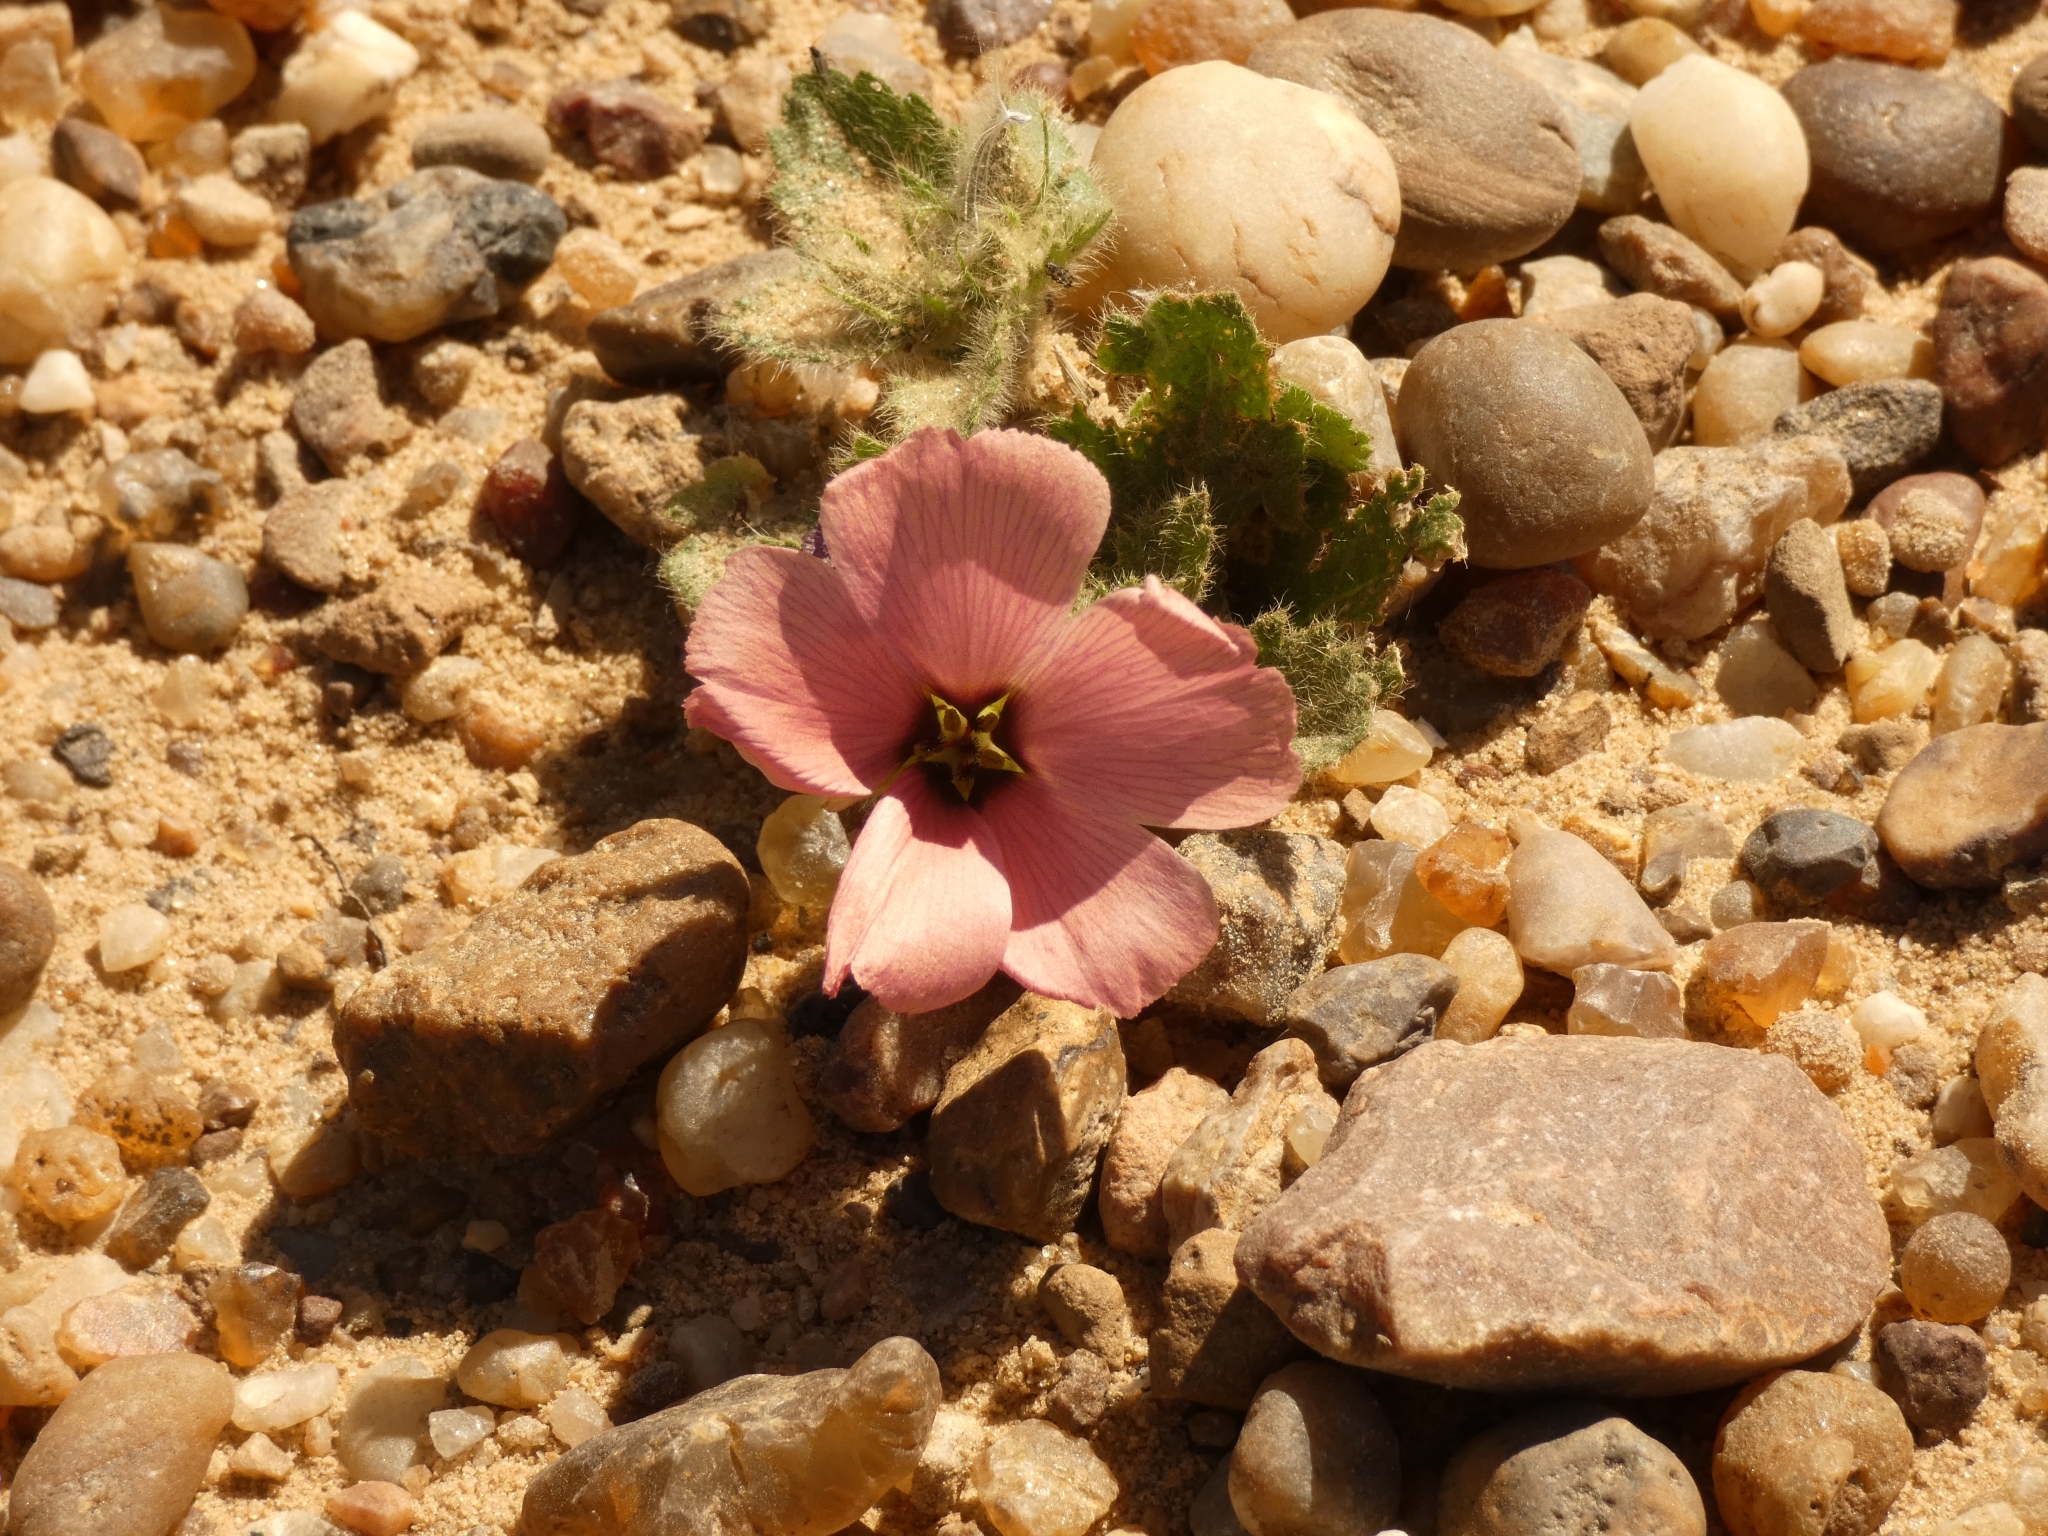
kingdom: Plantae
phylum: Tracheophyta
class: Magnoliopsida
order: Malpighiales
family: Turneraceae
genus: Turnera
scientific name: Turnera sidoides
